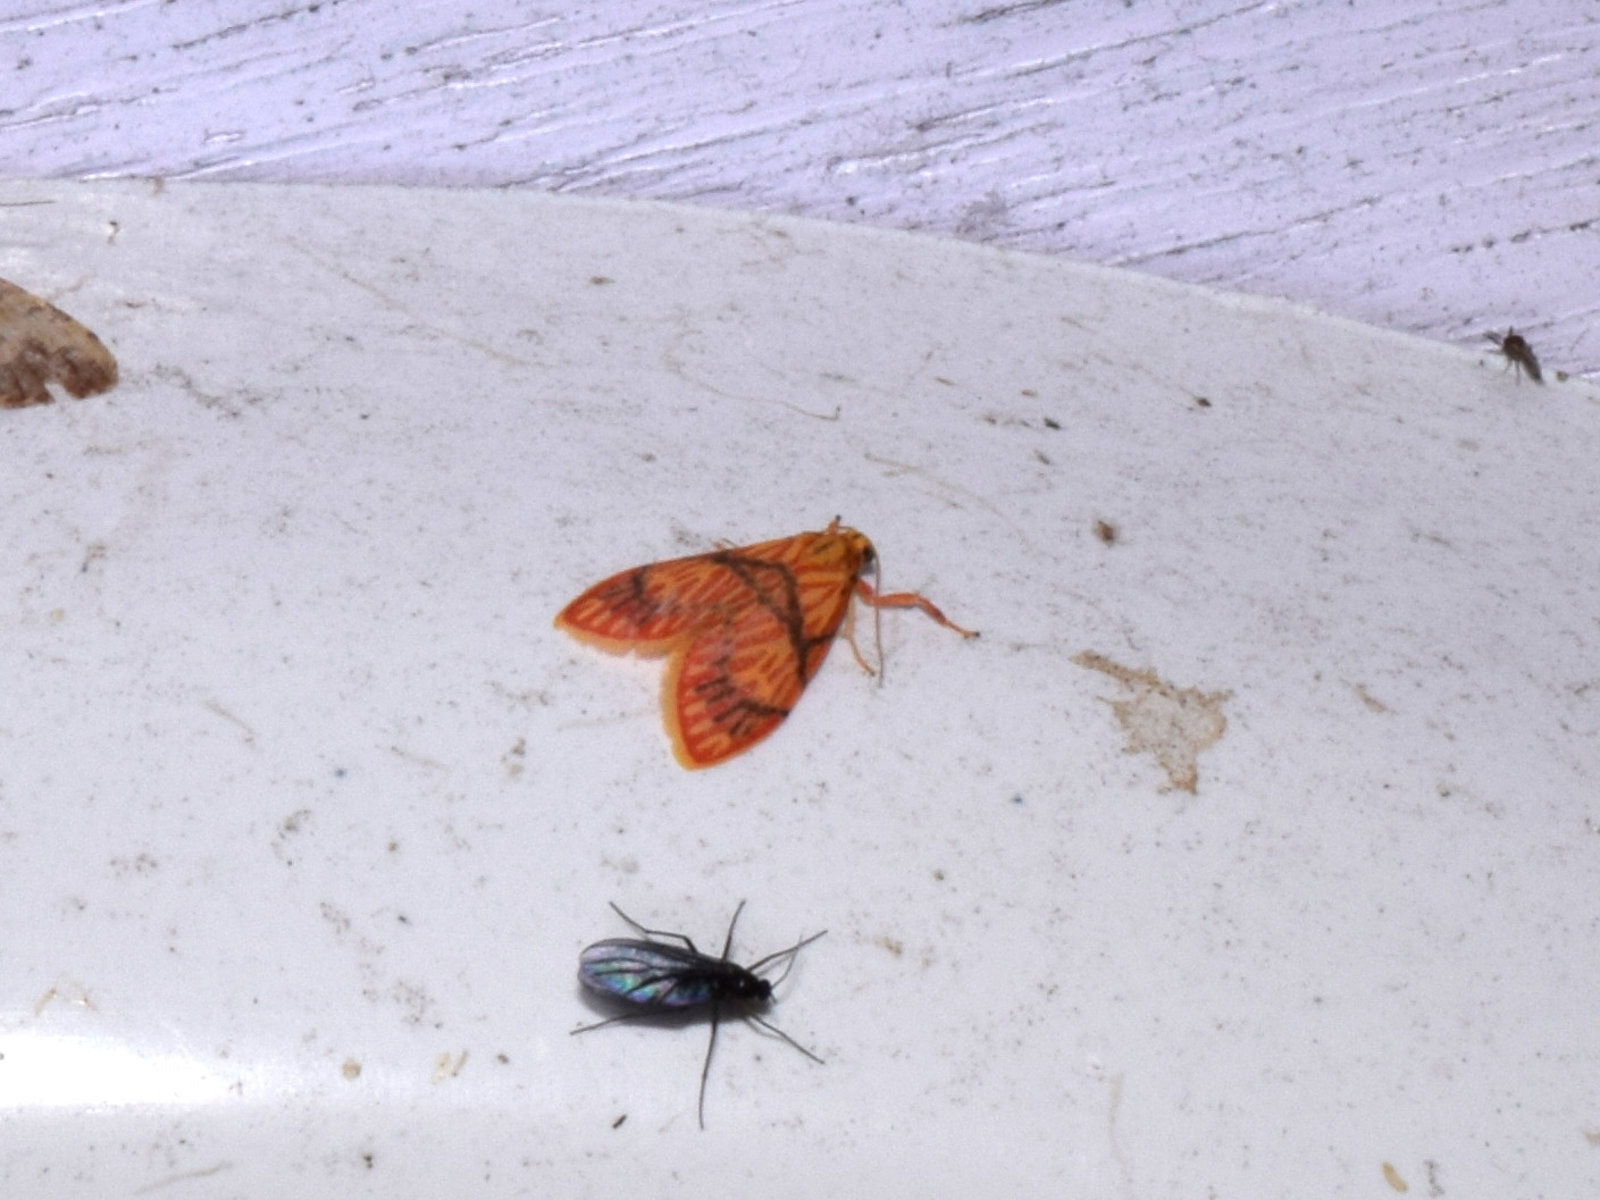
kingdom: Animalia
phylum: Arthropoda
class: Insecta
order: Lepidoptera
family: Erebidae
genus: Micrarsine
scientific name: Micrarsine flavivenosa
